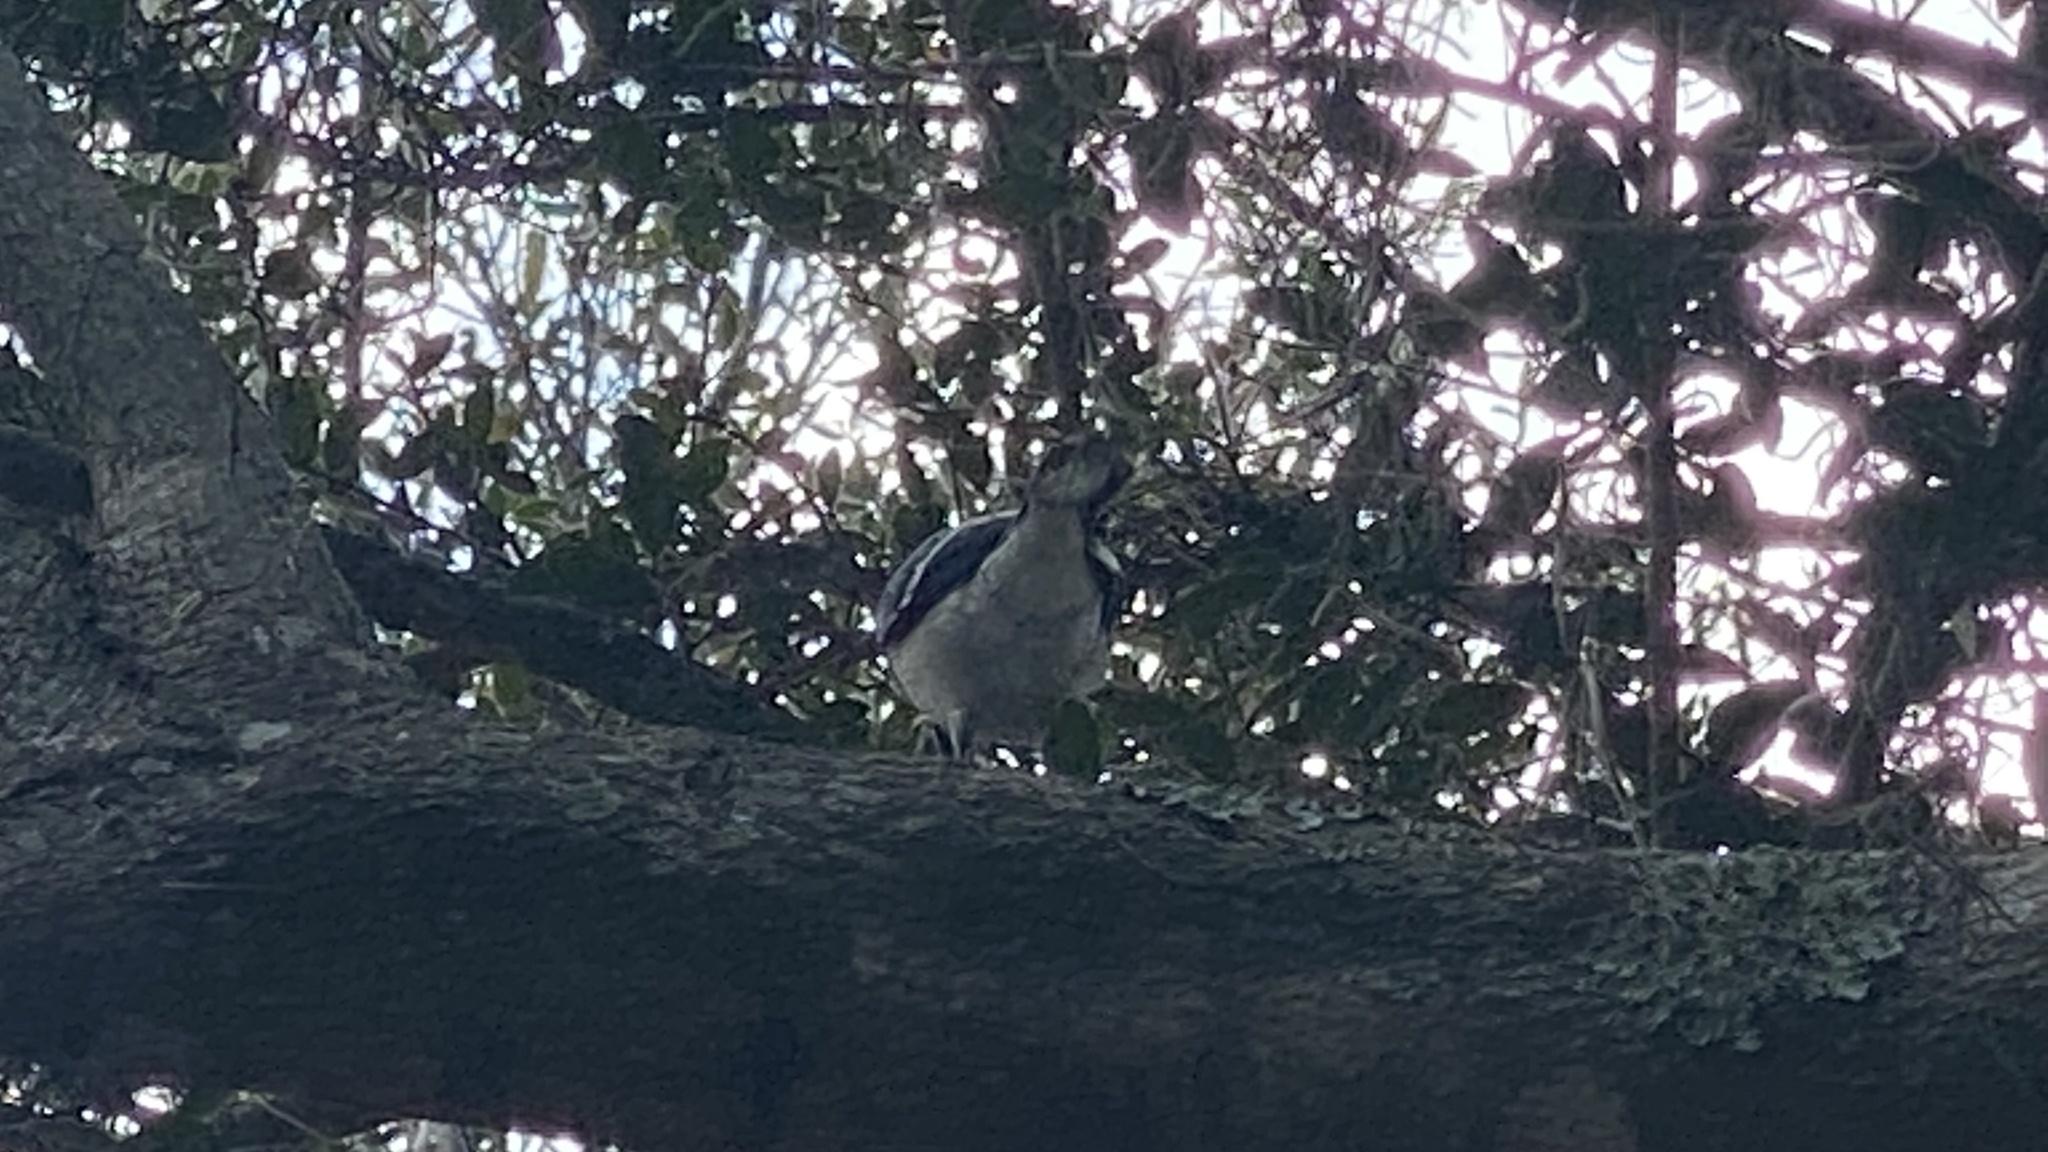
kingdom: Animalia
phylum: Chordata
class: Aves
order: Passeriformes
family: Corvidae
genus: Cyanocitta
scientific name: Cyanocitta cristata
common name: Blue jay
